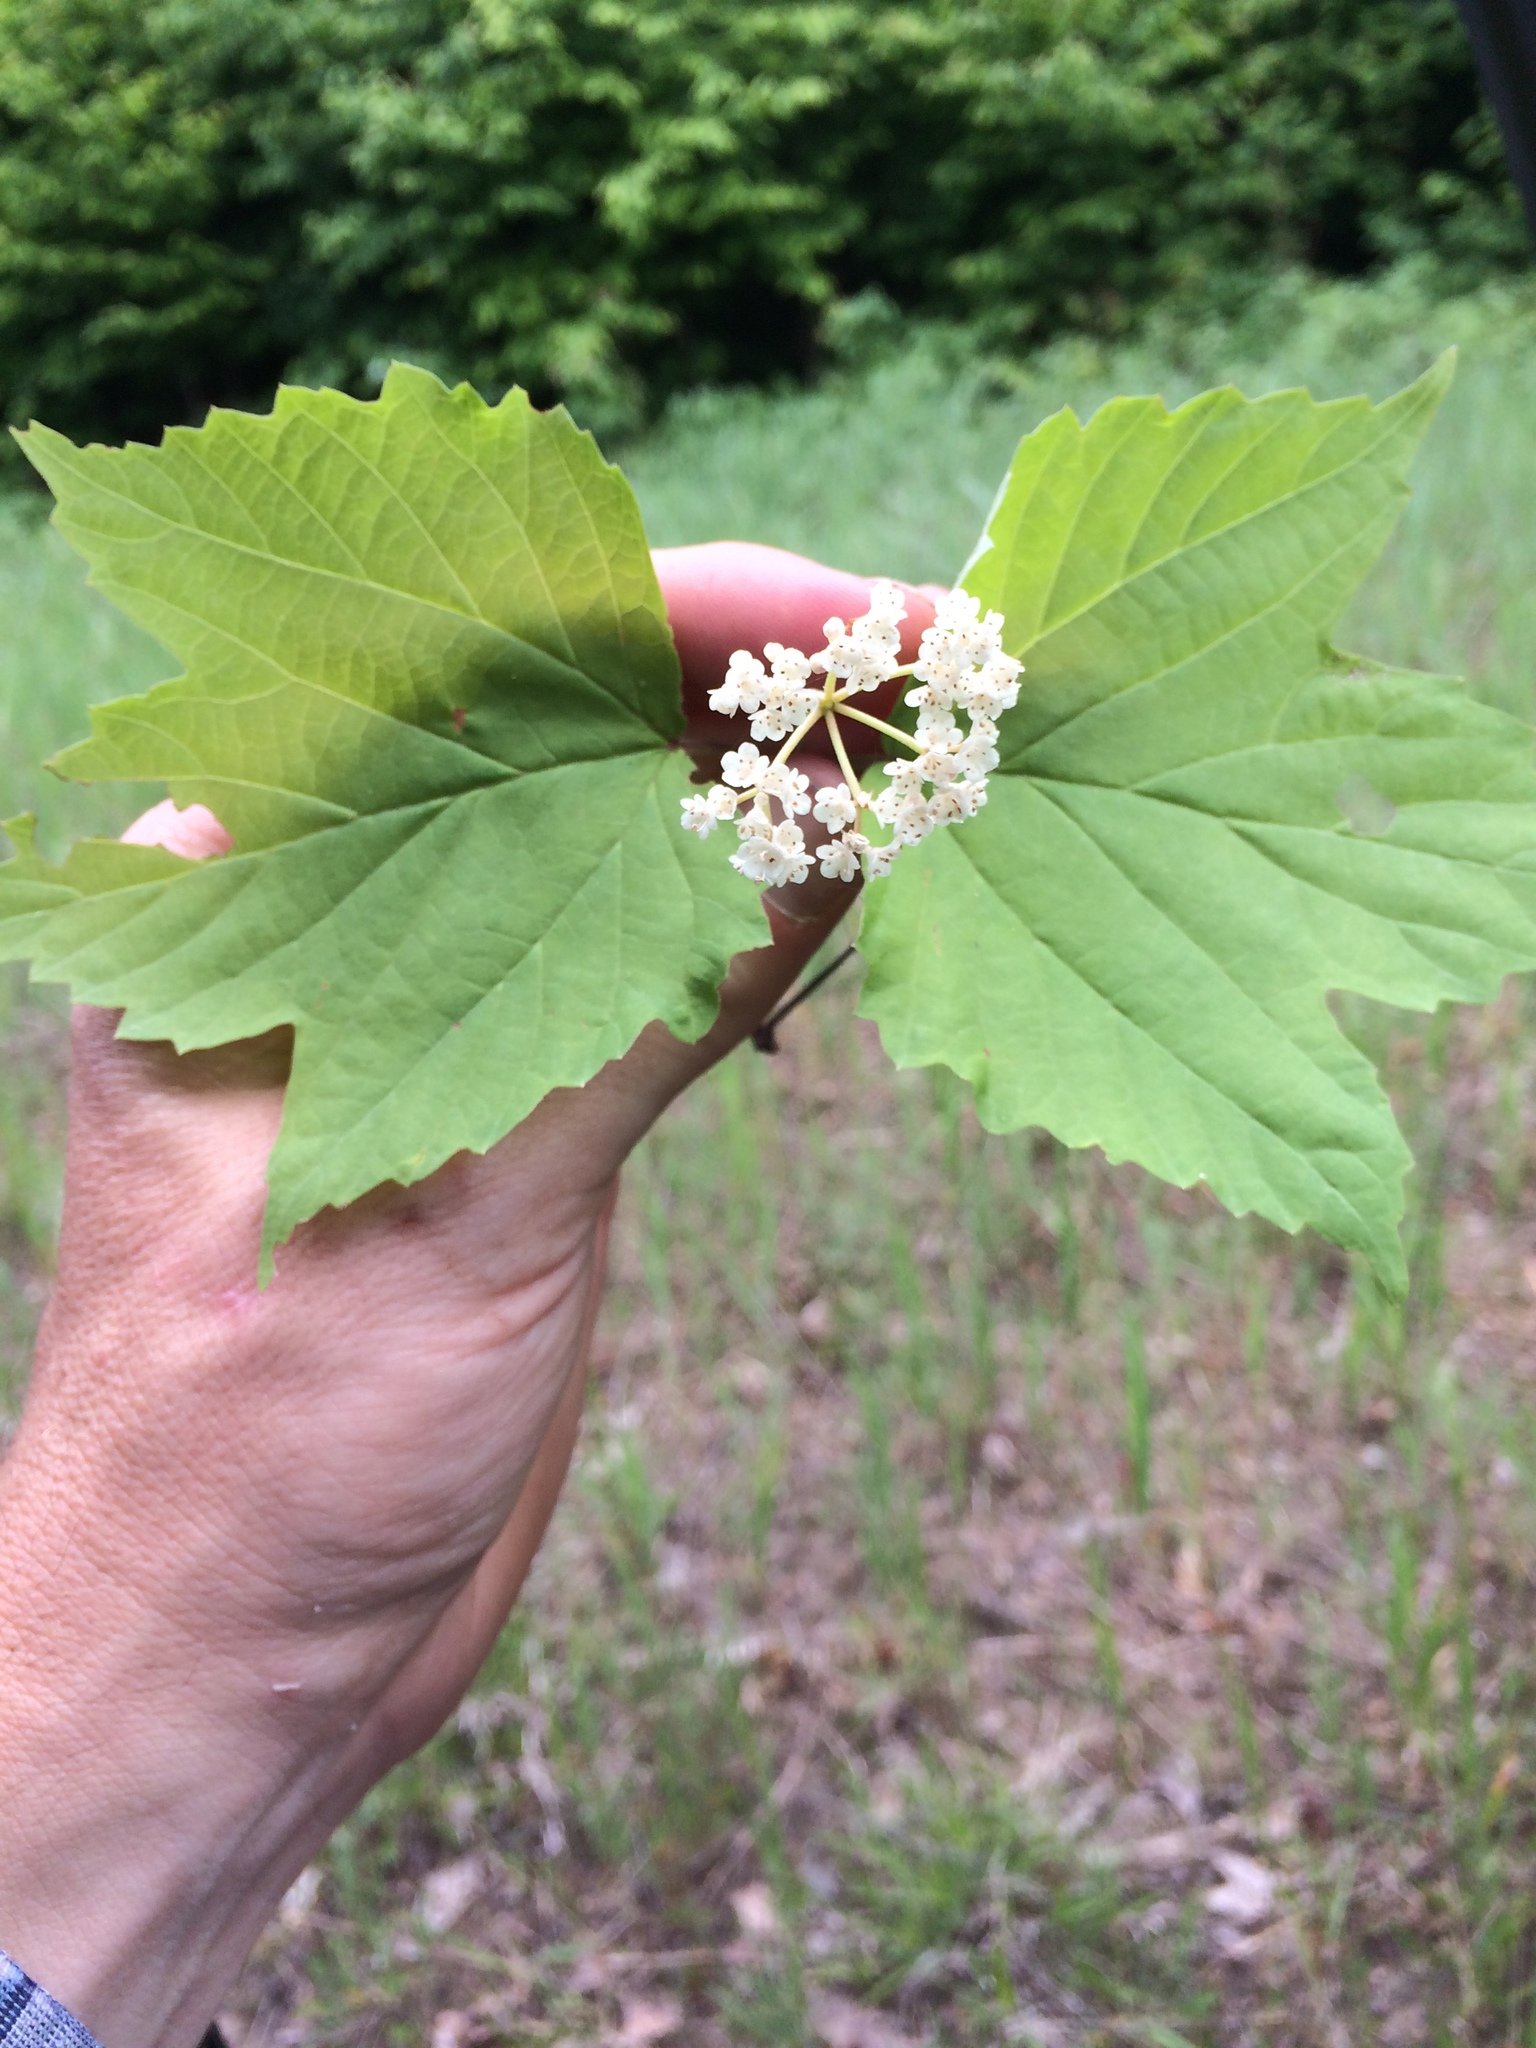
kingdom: Plantae
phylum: Tracheophyta
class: Magnoliopsida
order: Dipsacales
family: Viburnaceae
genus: Viburnum
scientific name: Viburnum acerifolium
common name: Dockmackie
